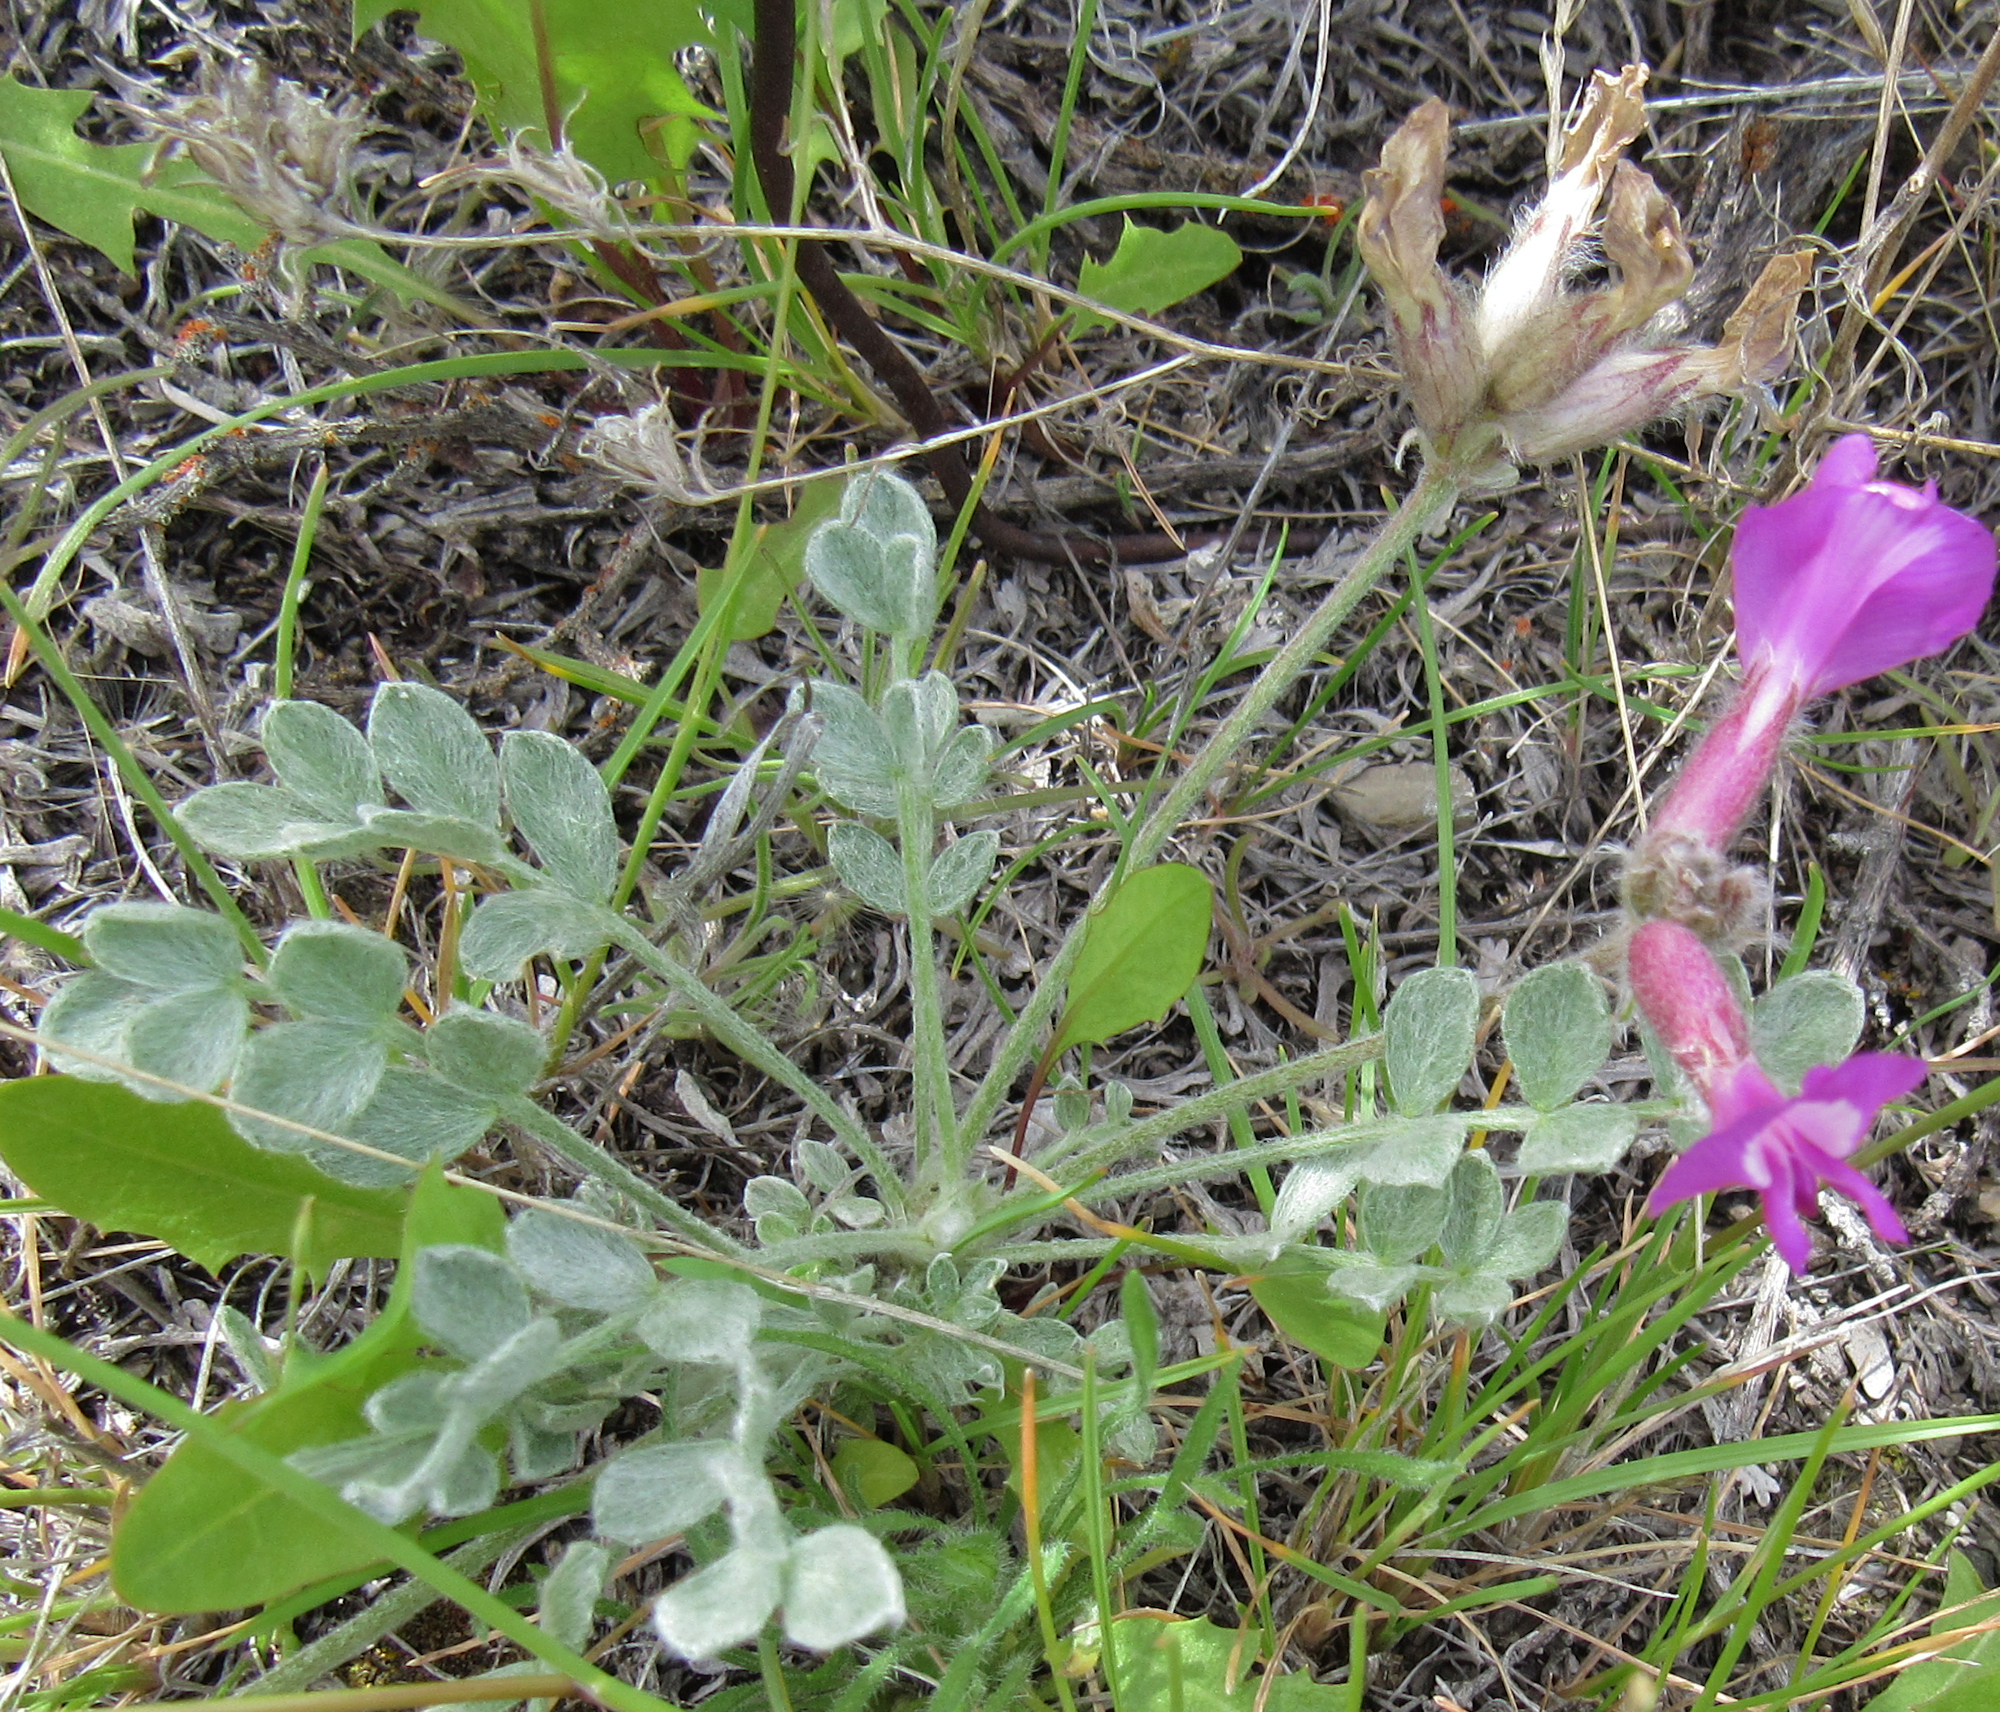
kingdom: Plantae
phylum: Tracheophyta
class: Magnoliopsida
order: Fabales
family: Fabaceae
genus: Astragalus
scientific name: Astragalus purshii
